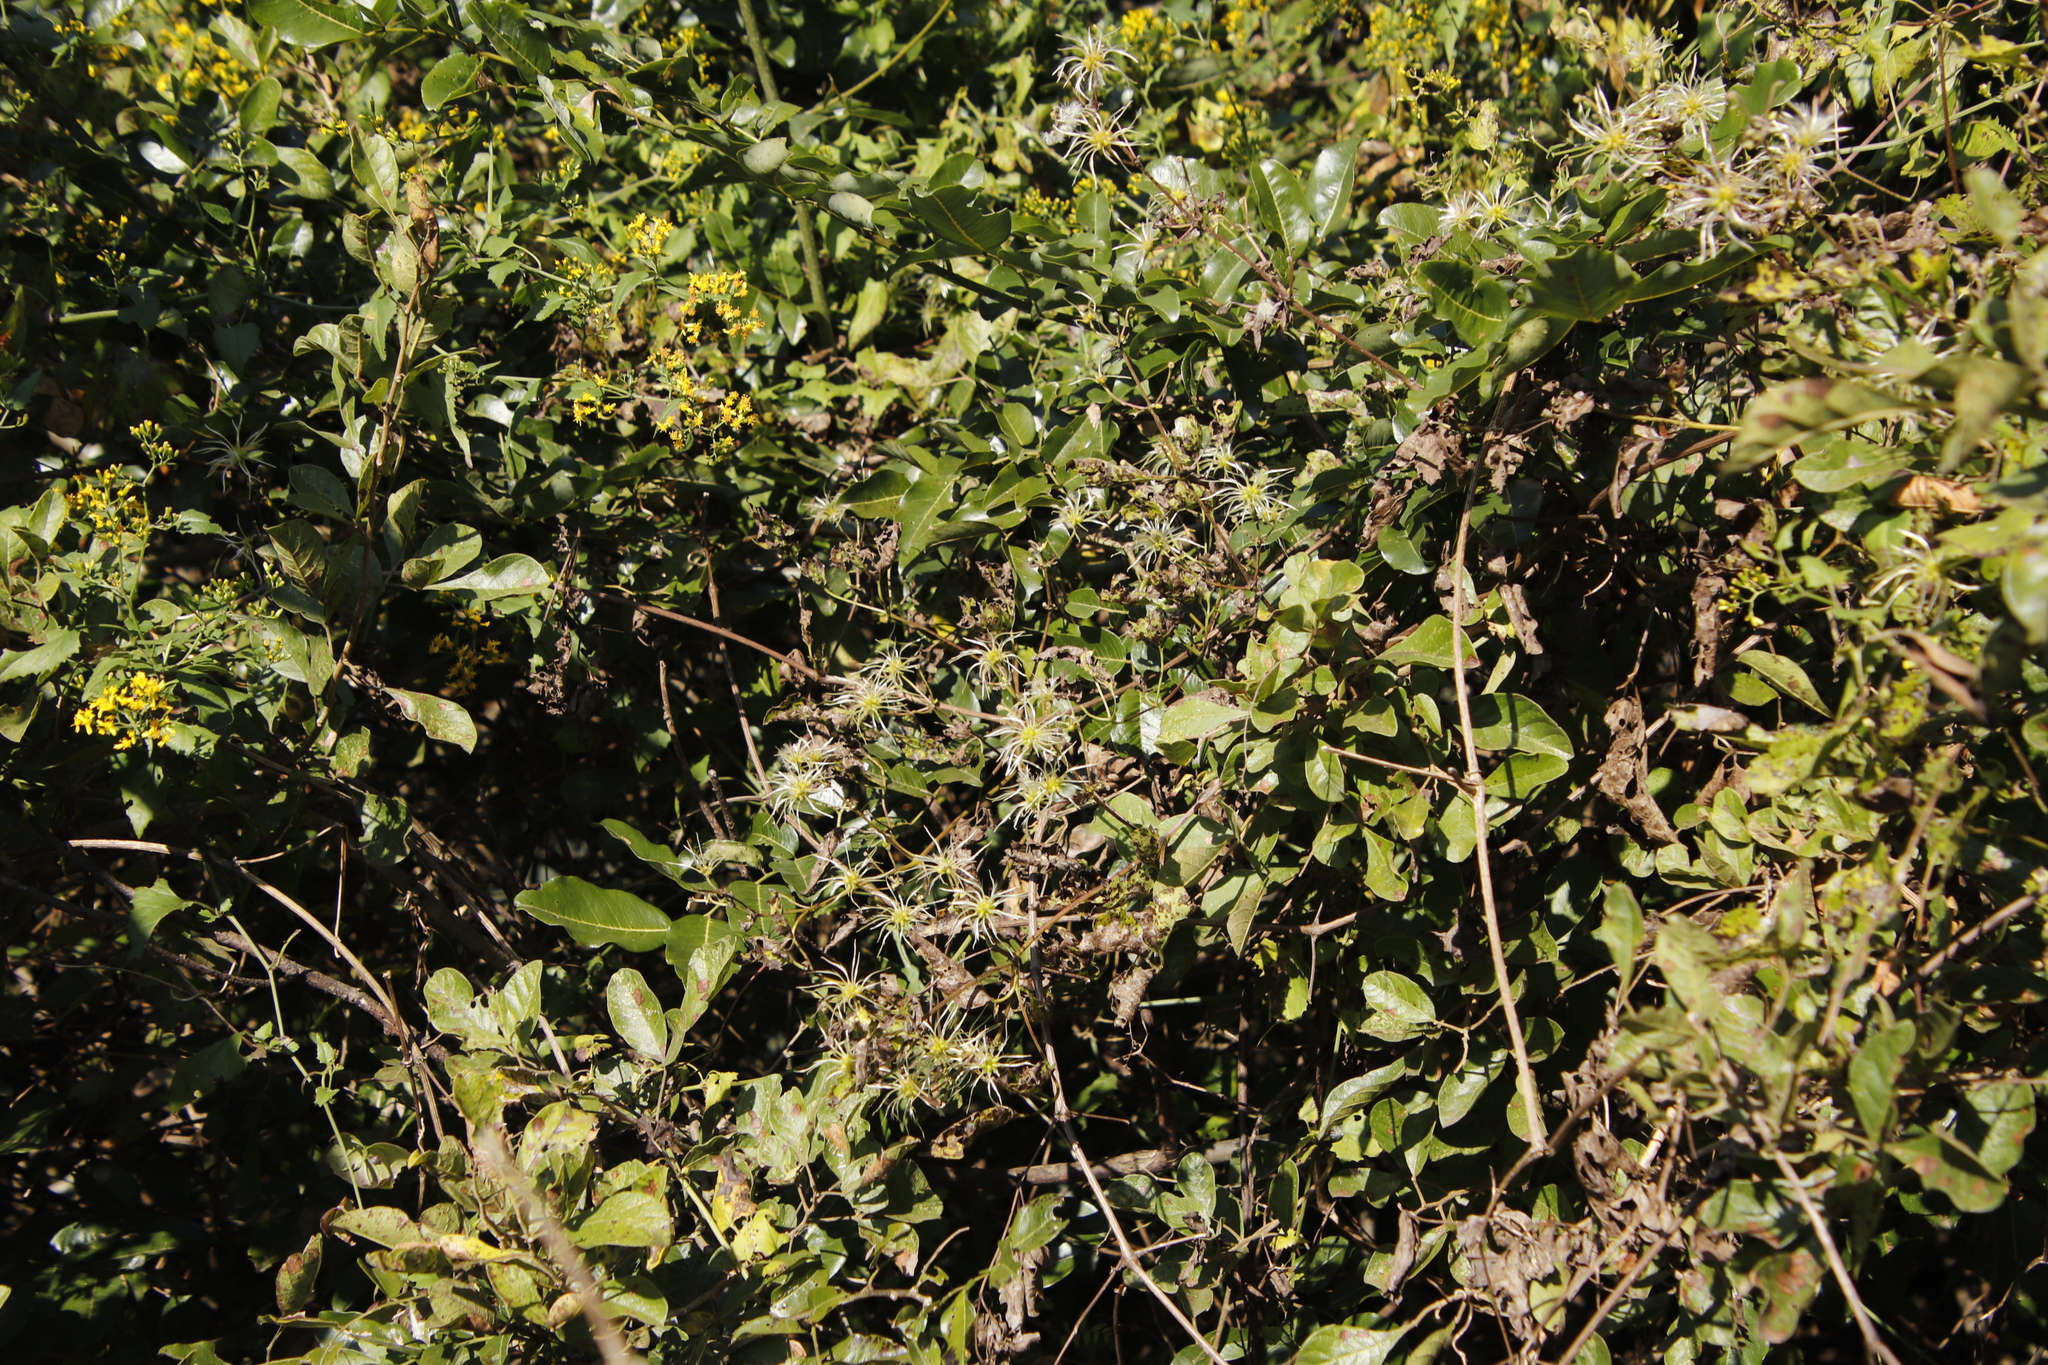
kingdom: Plantae
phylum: Tracheophyta
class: Magnoliopsida
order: Ranunculales
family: Ranunculaceae
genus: Clematis
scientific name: Clematis brachiata
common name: Traveler's-joy
